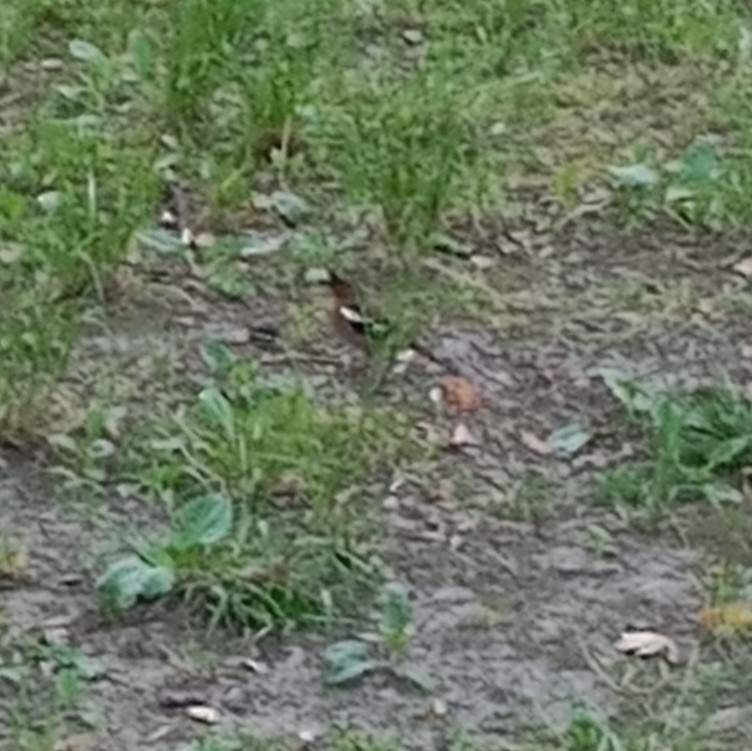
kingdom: Animalia
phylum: Chordata
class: Aves
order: Passeriformes
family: Fringillidae
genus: Fringilla
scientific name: Fringilla coelebs
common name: Common chaffinch
